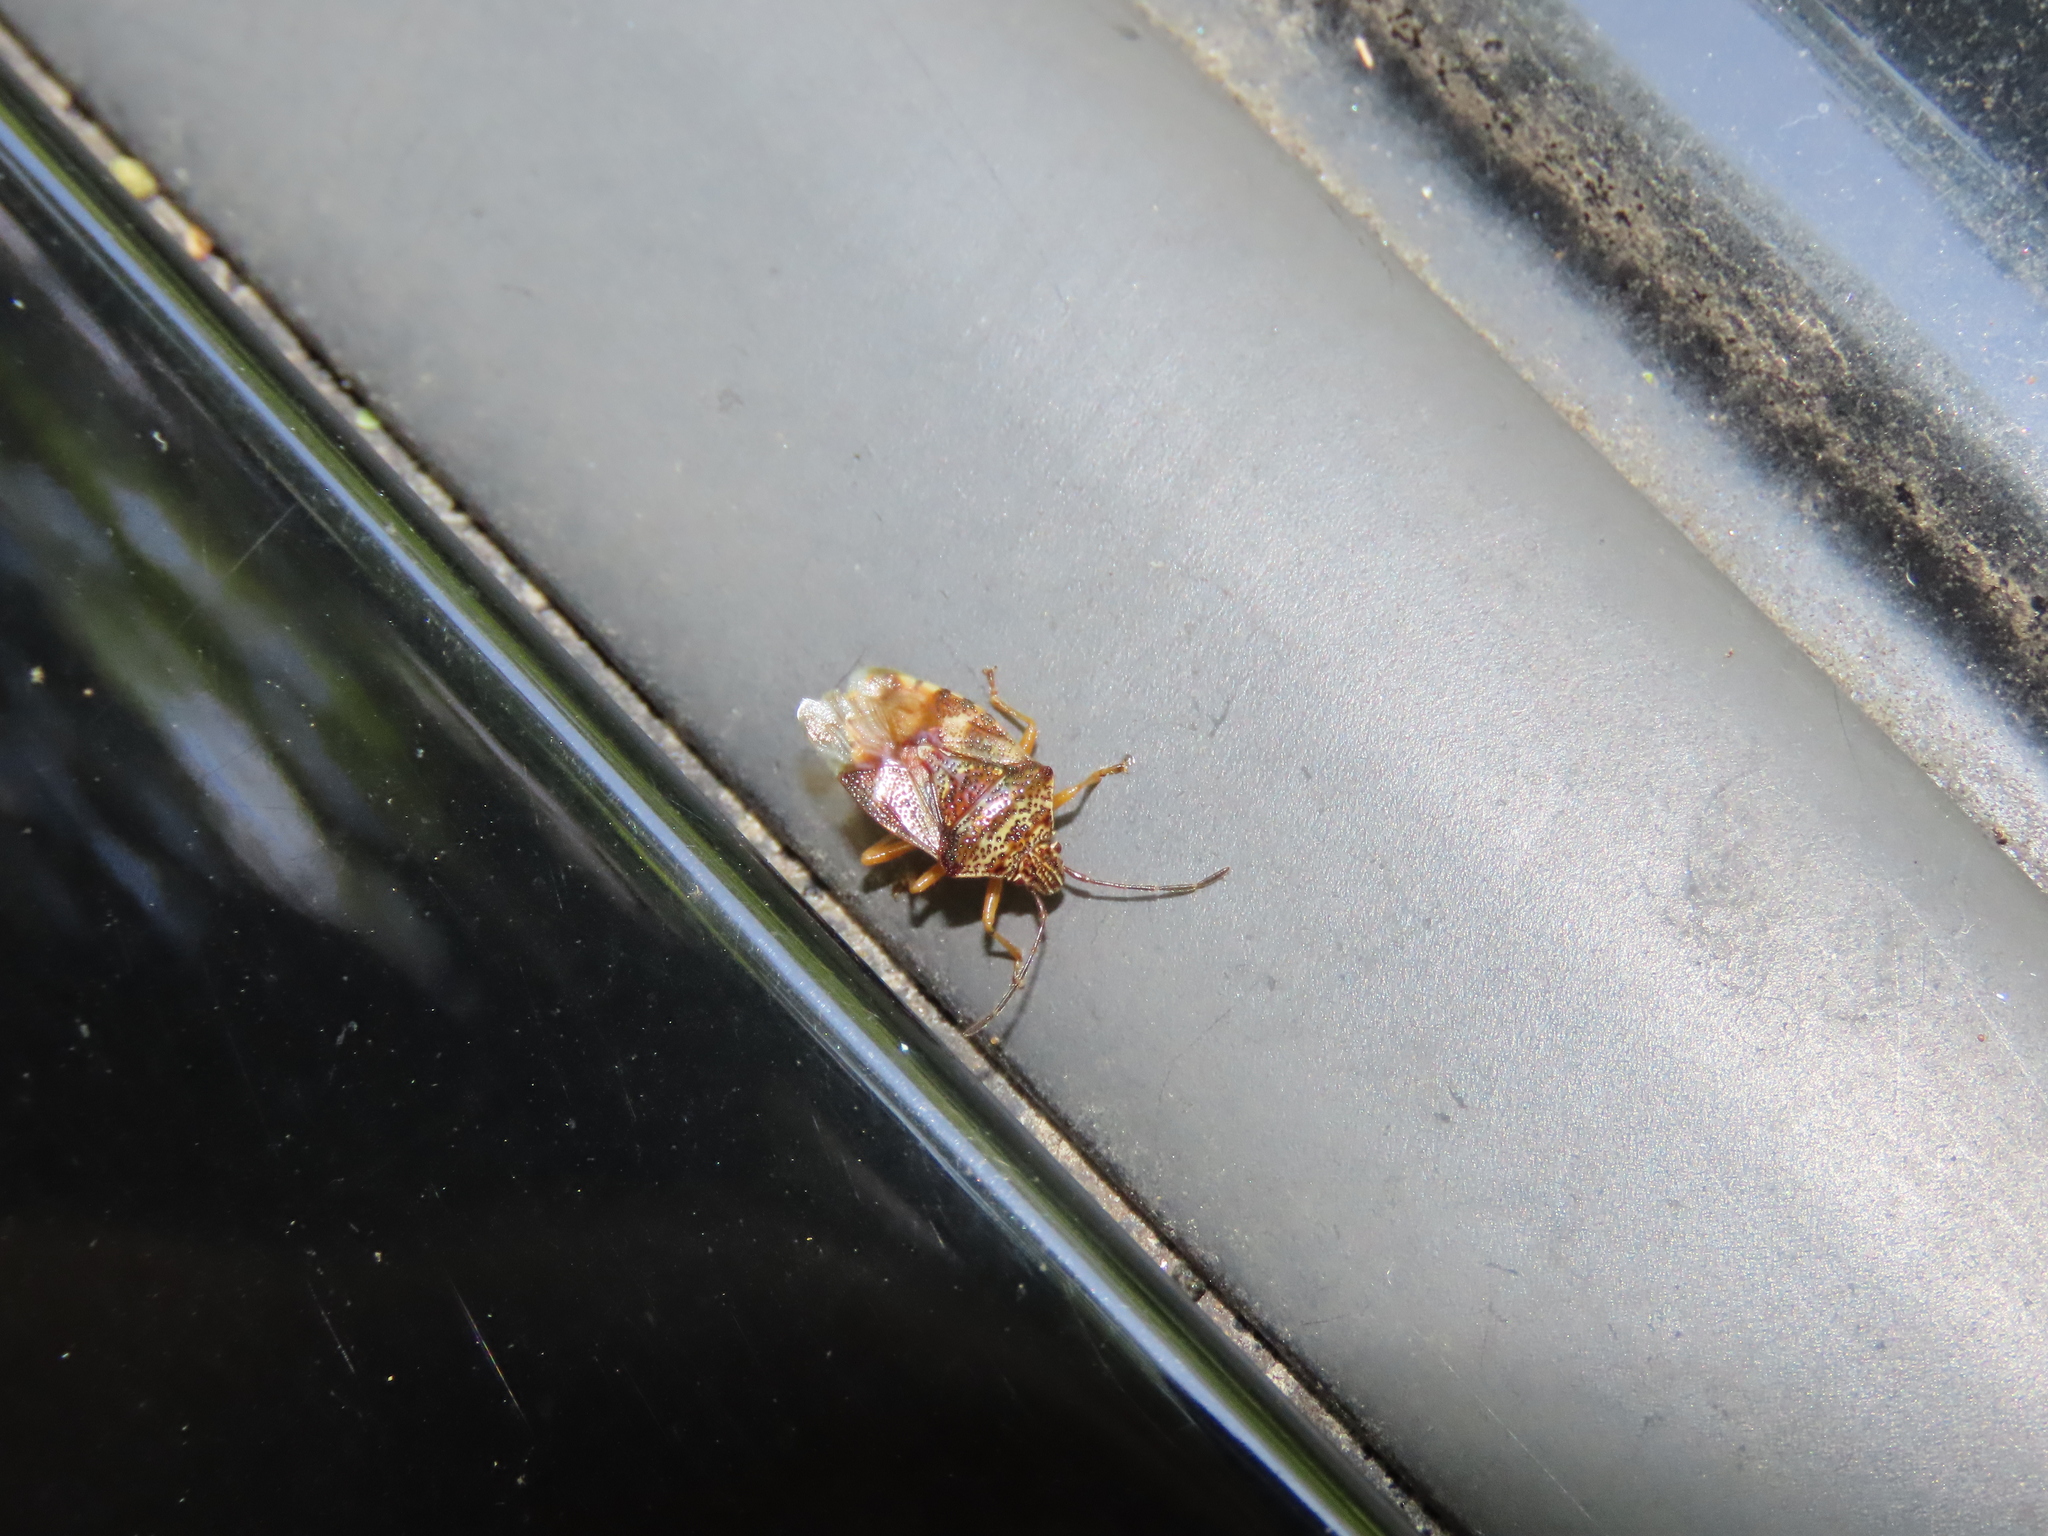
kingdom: Animalia
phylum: Arthropoda
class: Insecta
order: Hemiptera
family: Acanthosomatidae
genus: Elasmucha
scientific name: Elasmucha lateralis
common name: Shield bug
